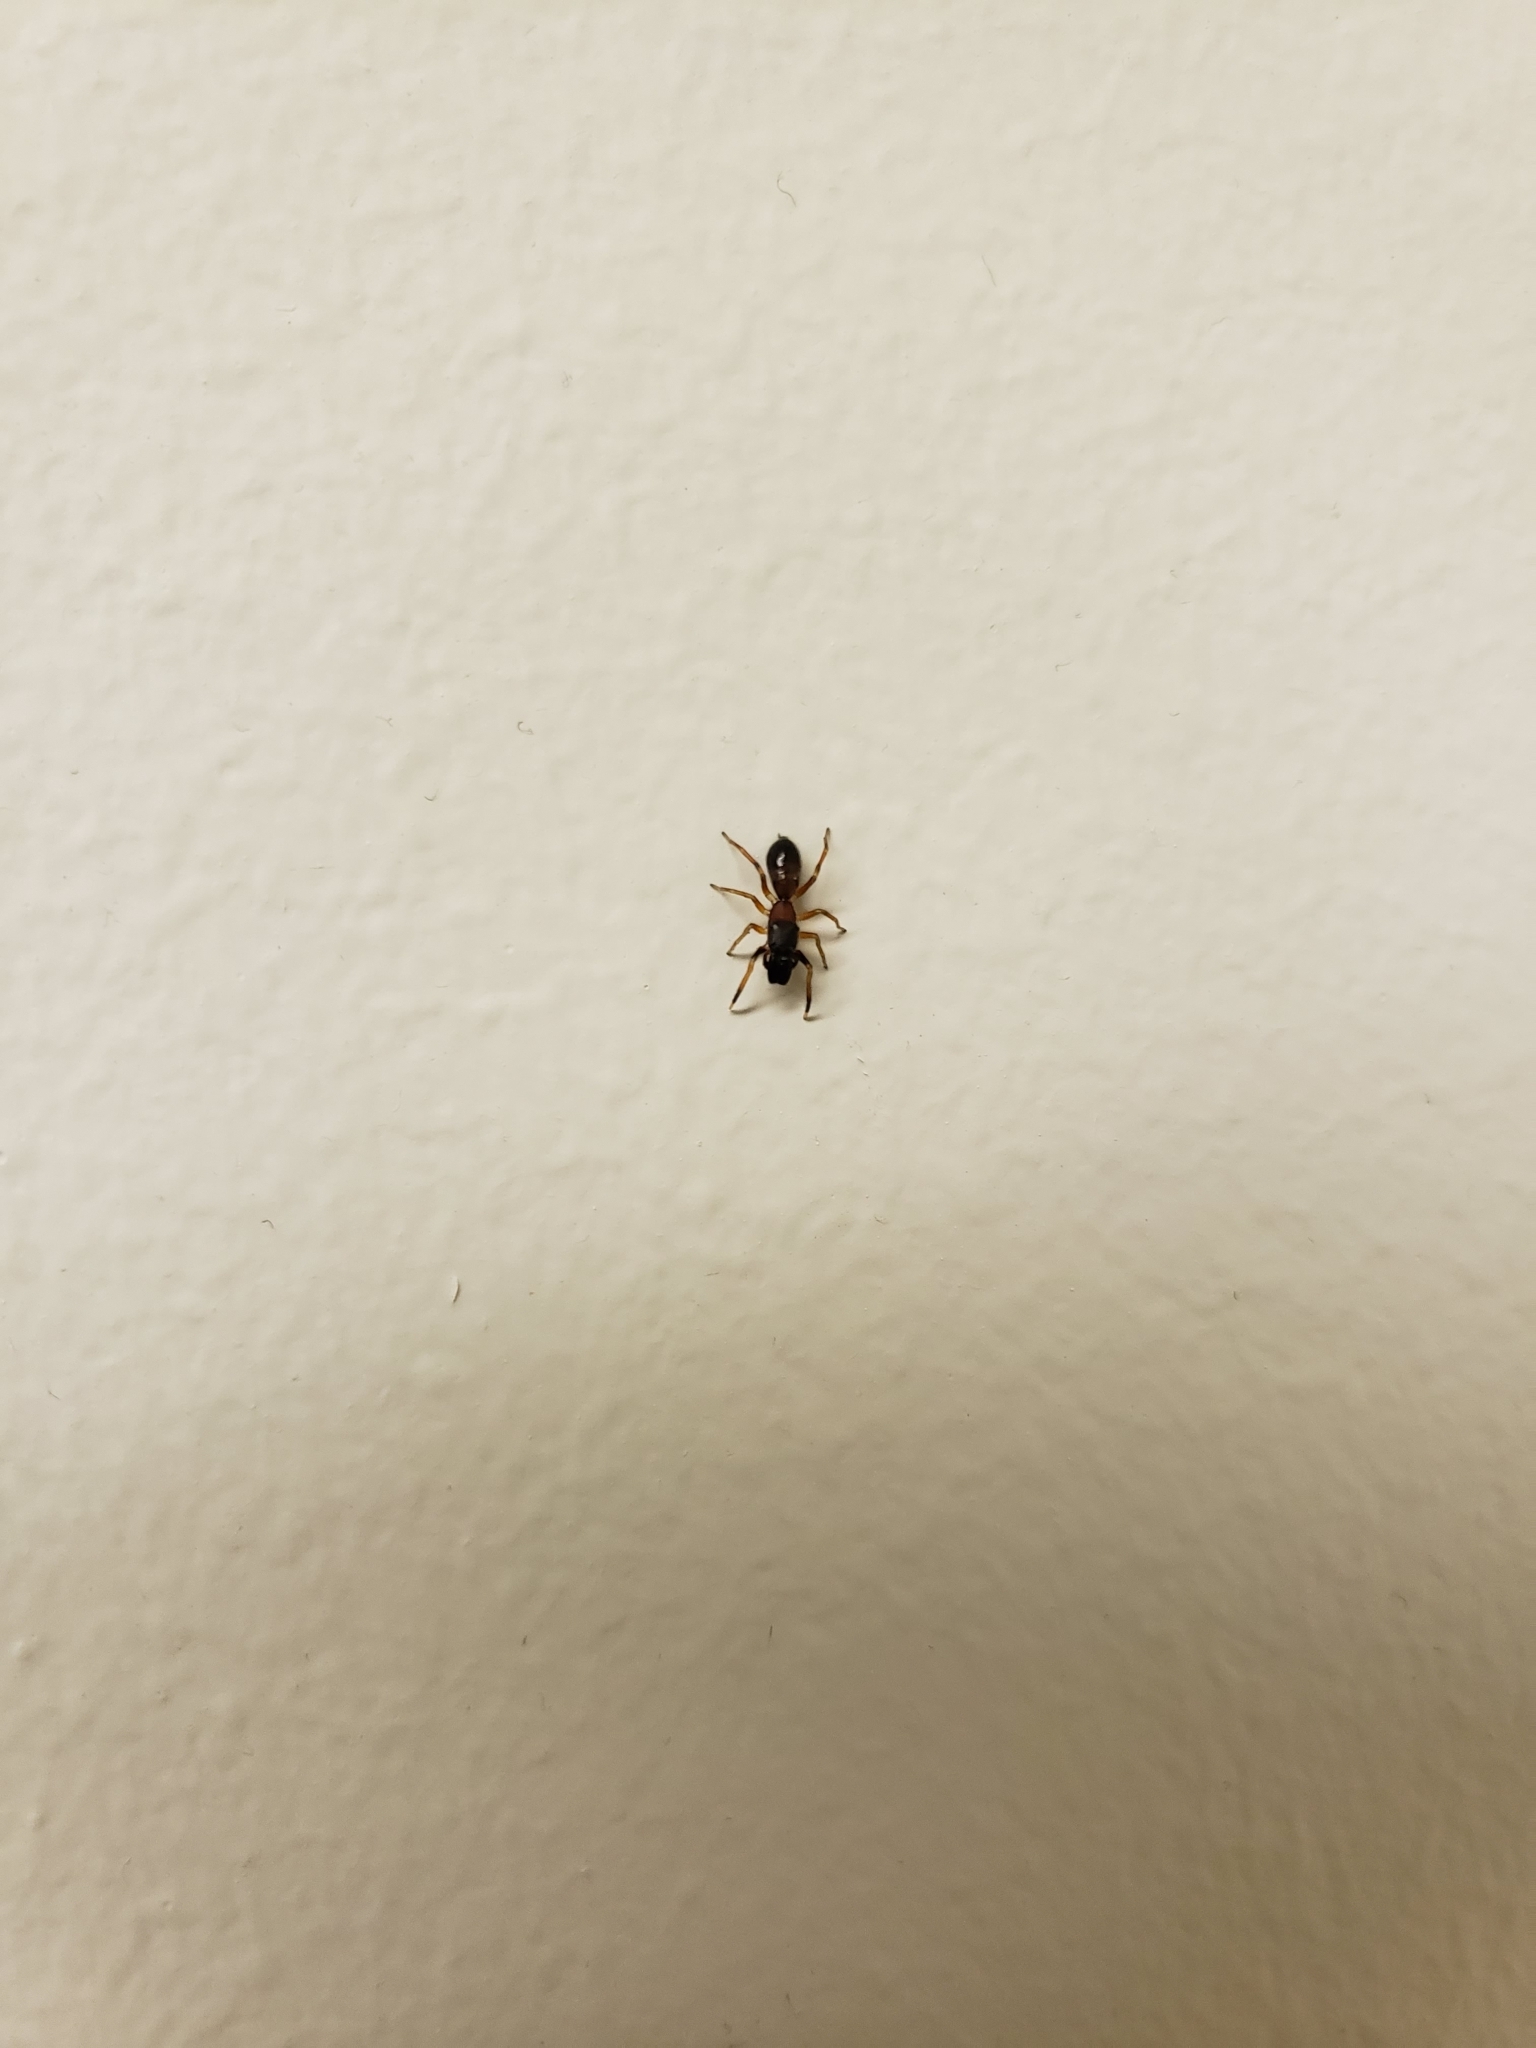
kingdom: Animalia
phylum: Arthropoda
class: Arachnida
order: Araneae
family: Salticidae
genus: Myrmarachne
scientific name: Myrmarachne formicaria
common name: Ant mimic jumping spider
